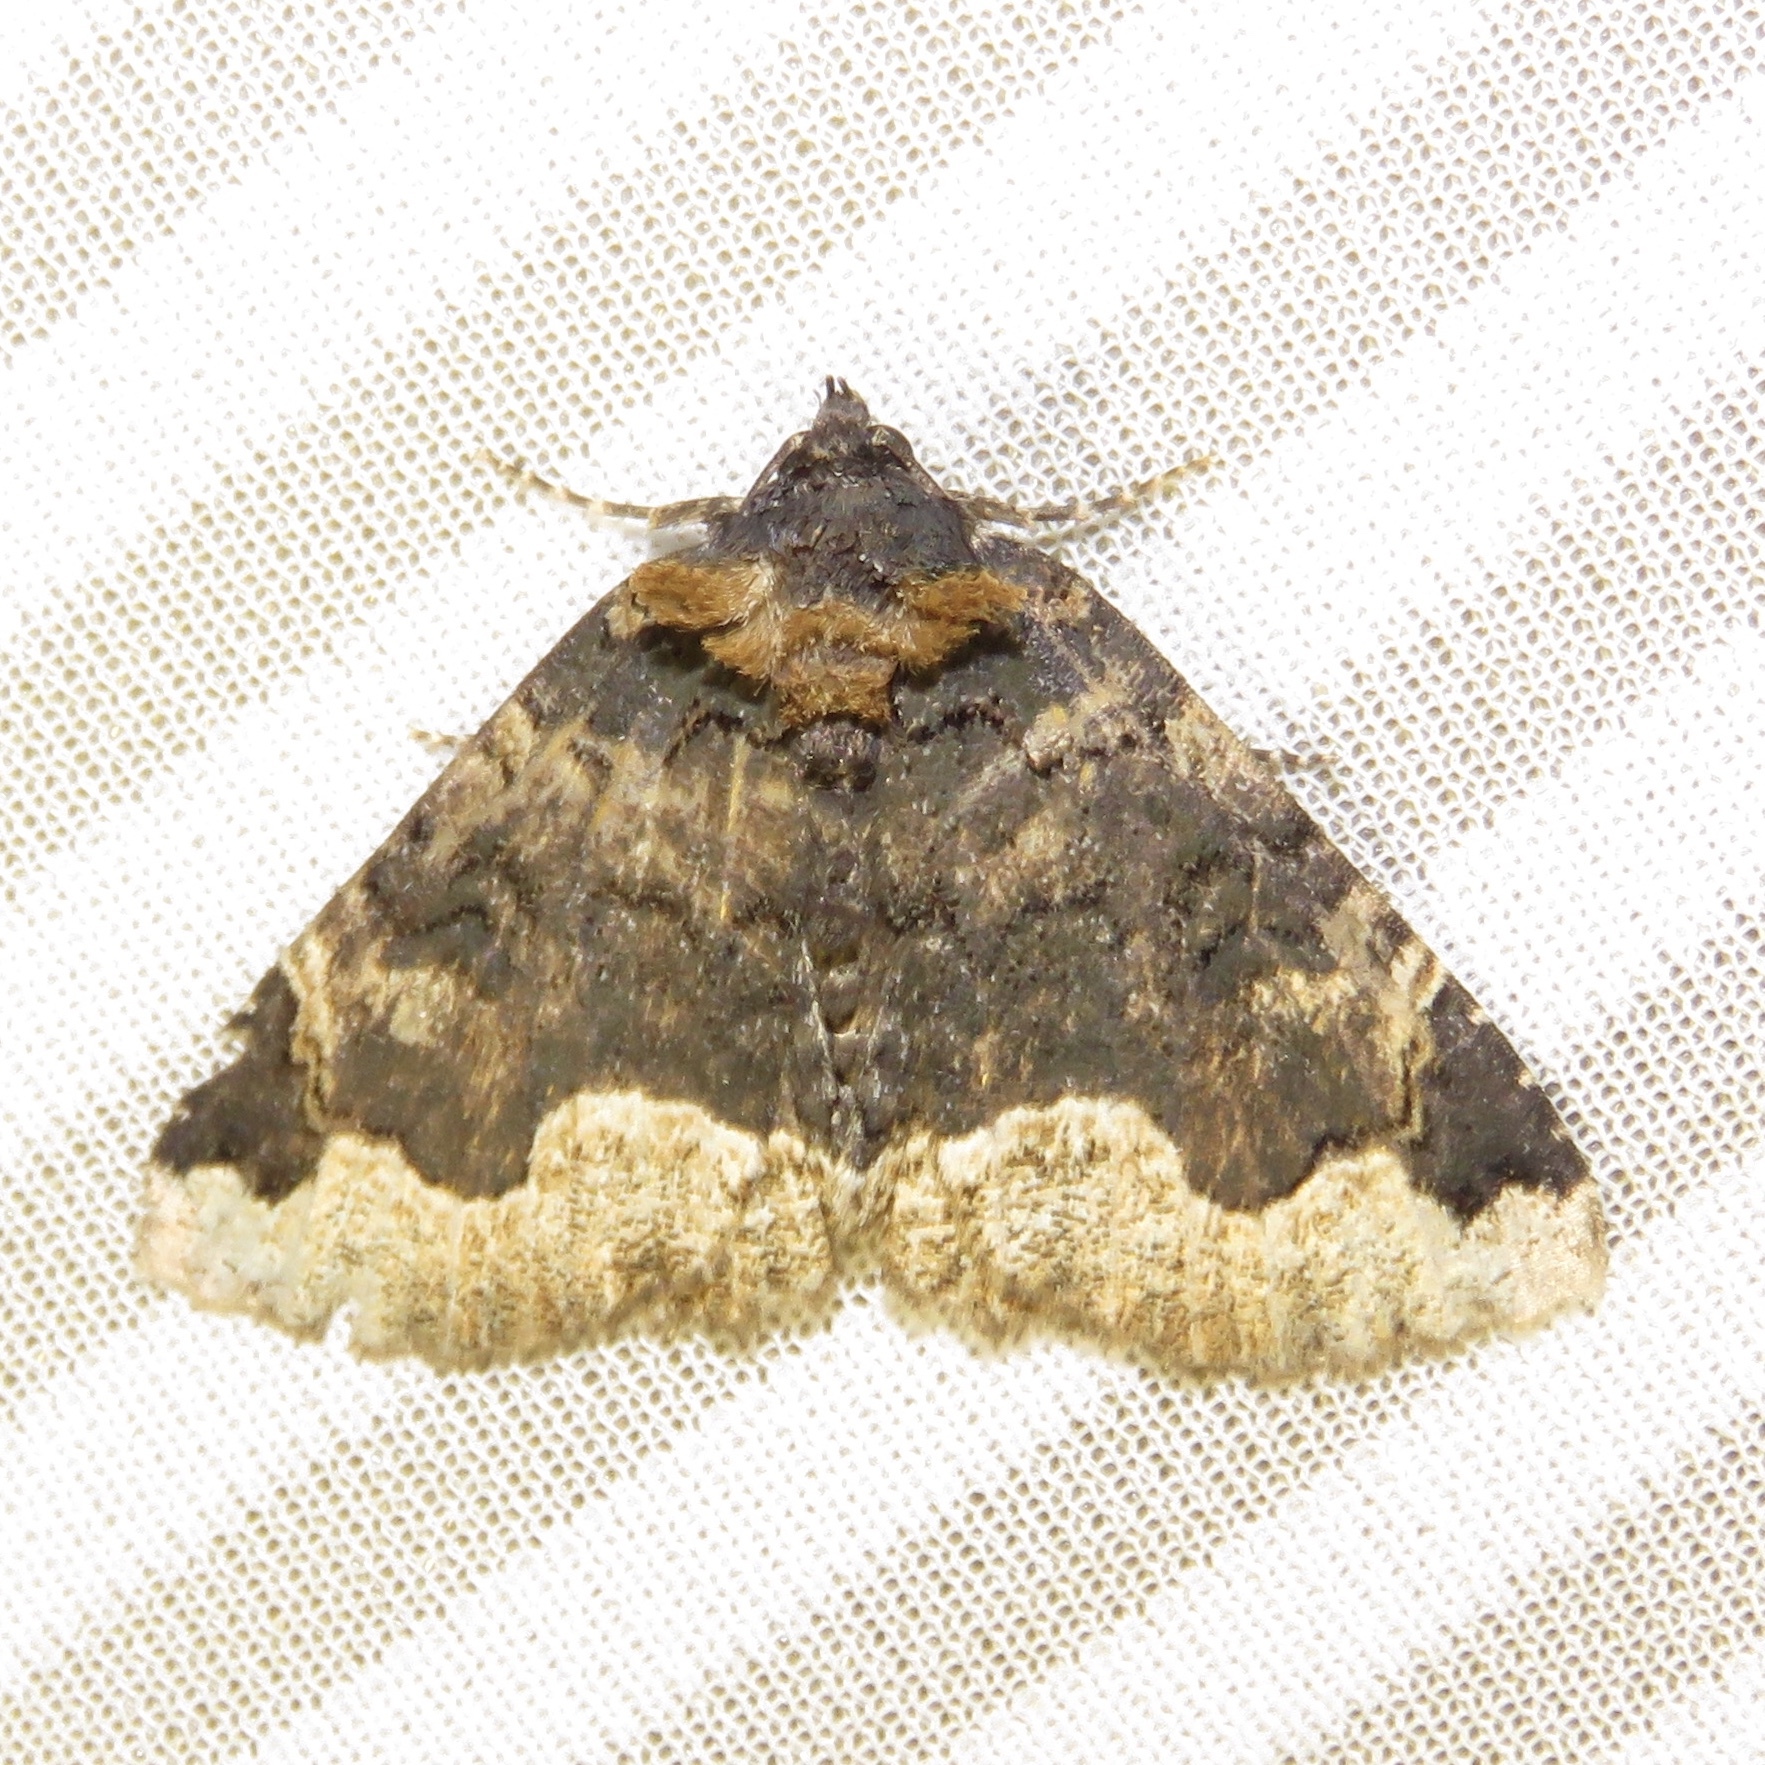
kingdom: Animalia
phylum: Arthropoda
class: Insecta
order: Lepidoptera
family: Erebidae
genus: Zale
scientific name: Zale horrida
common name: Horrid zale moth
